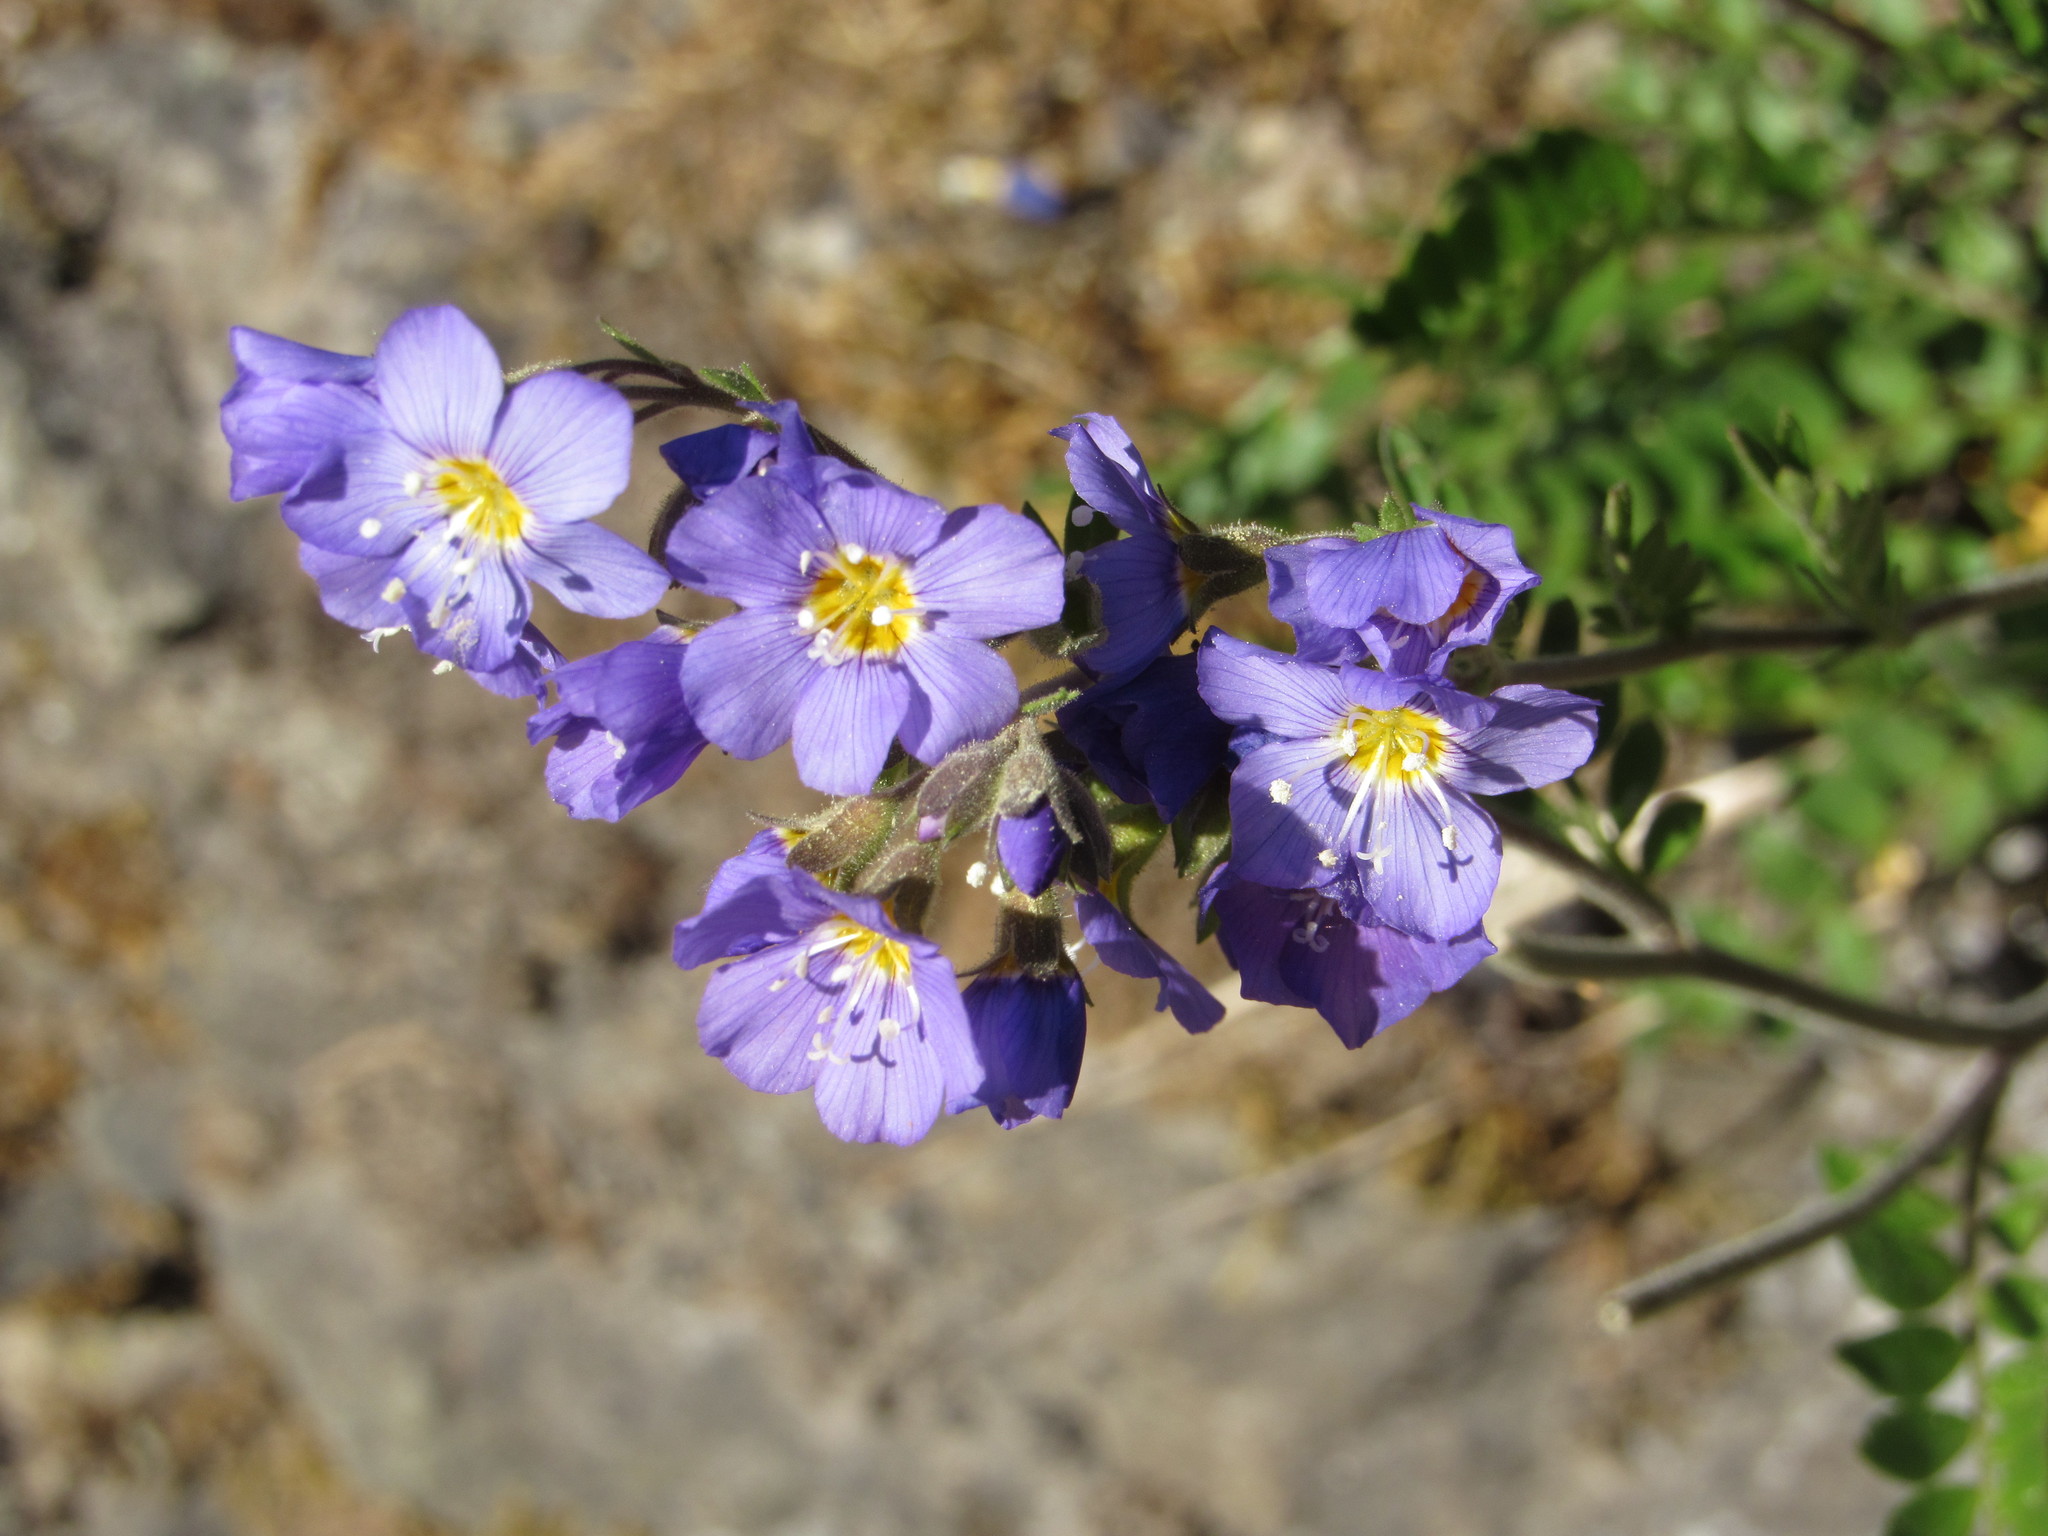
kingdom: Plantae
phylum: Tracheophyta
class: Magnoliopsida
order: Ericales
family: Polemoniaceae
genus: Polemonium
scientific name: Polemonium pulcherrimum
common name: Short jacob's-ladder
